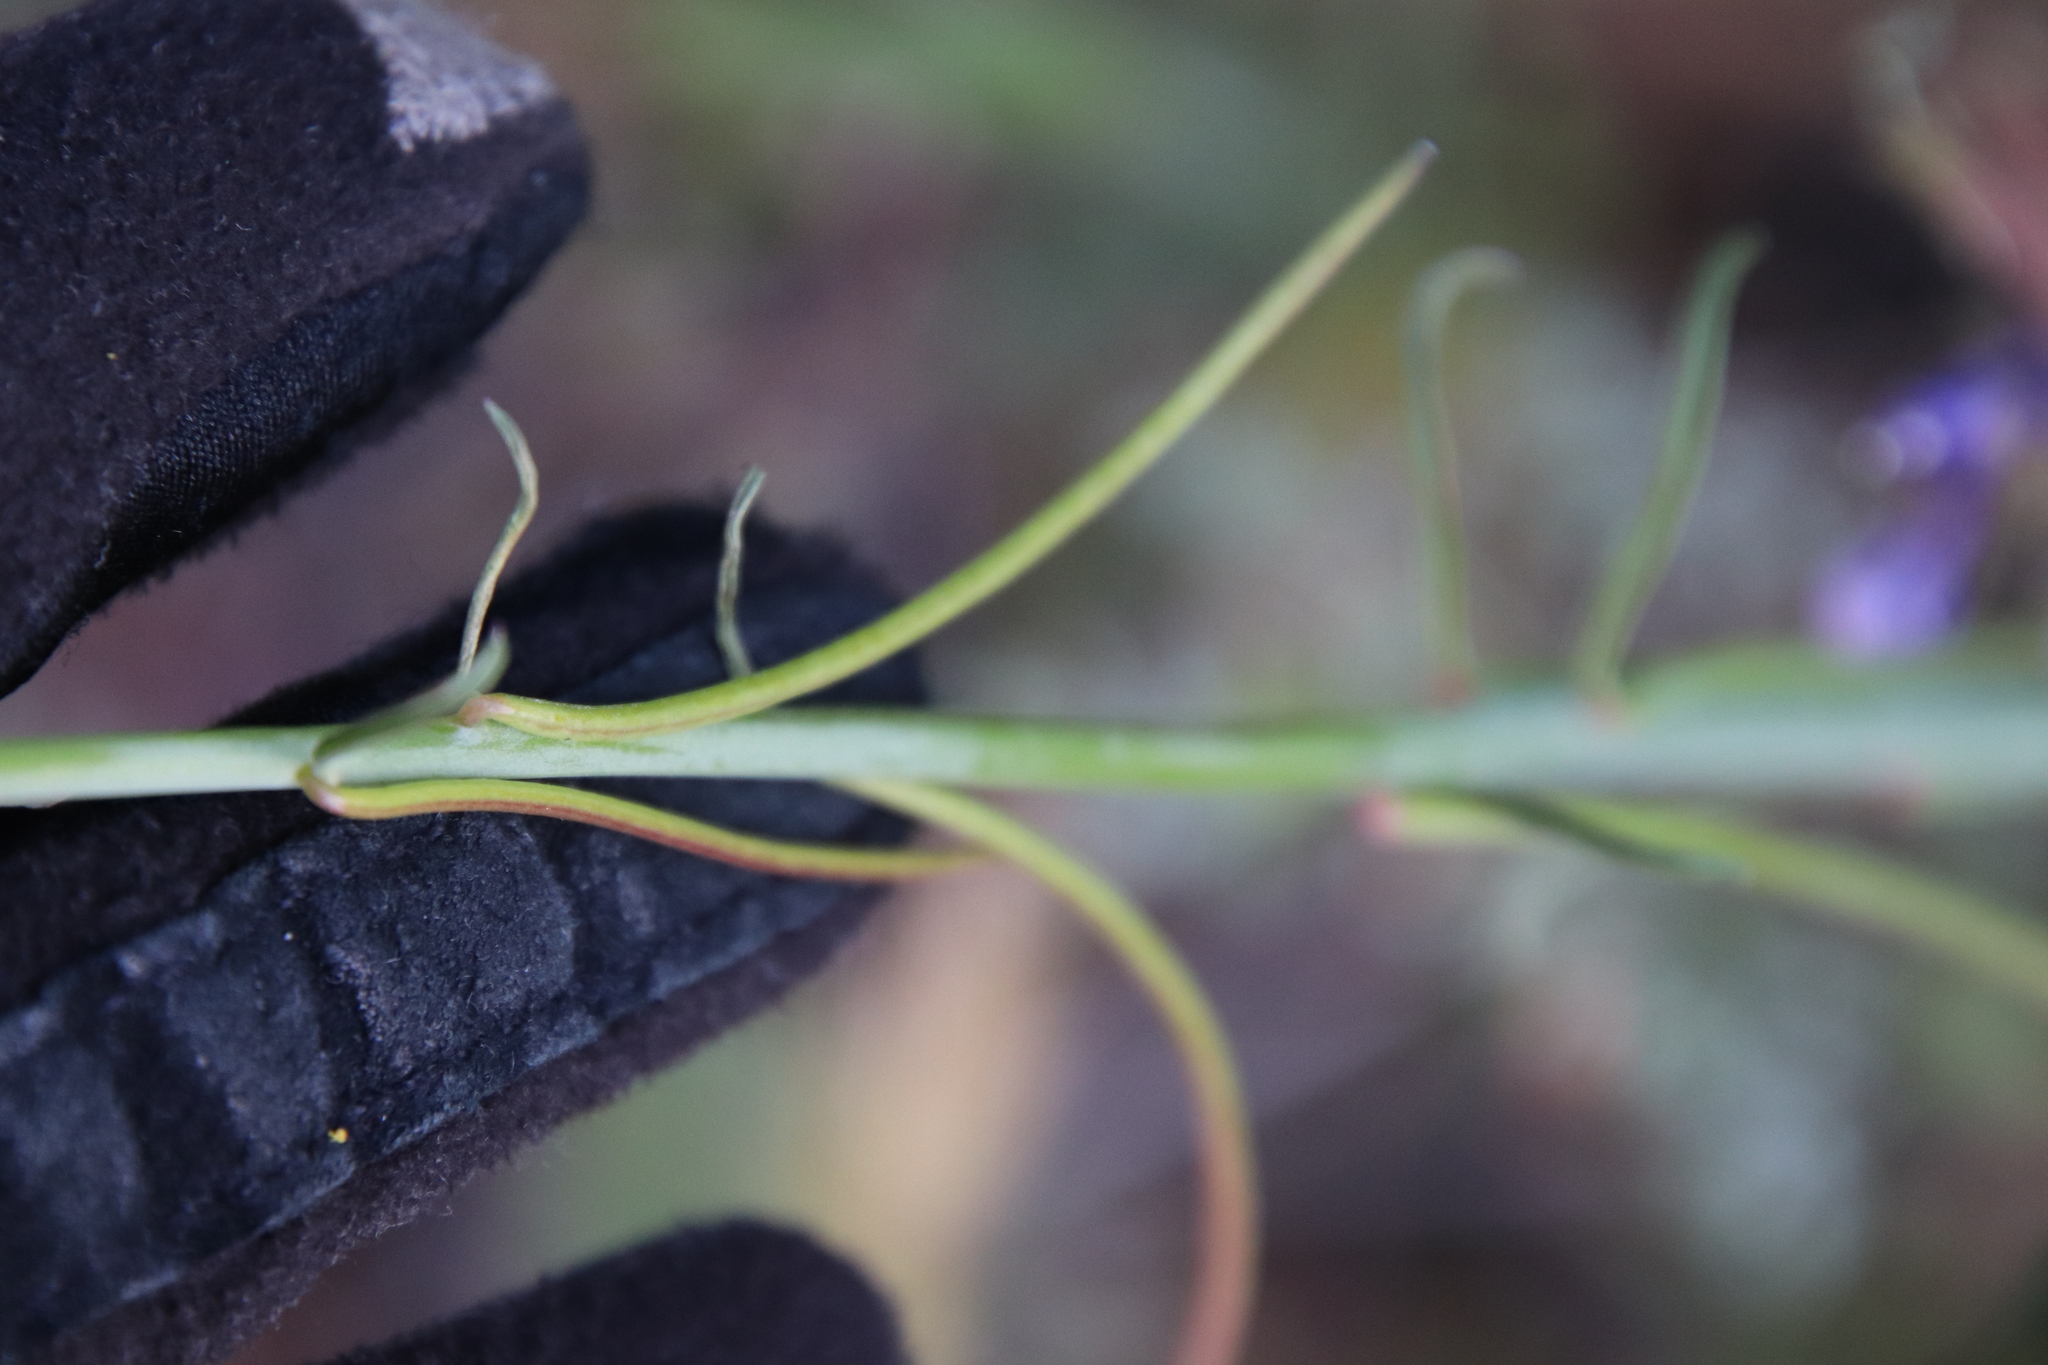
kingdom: Plantae
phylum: Tracheophyta
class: Magnoliopsida
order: Myrtales
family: Onagraceae
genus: Eulobus
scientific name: Eulobus californicus
